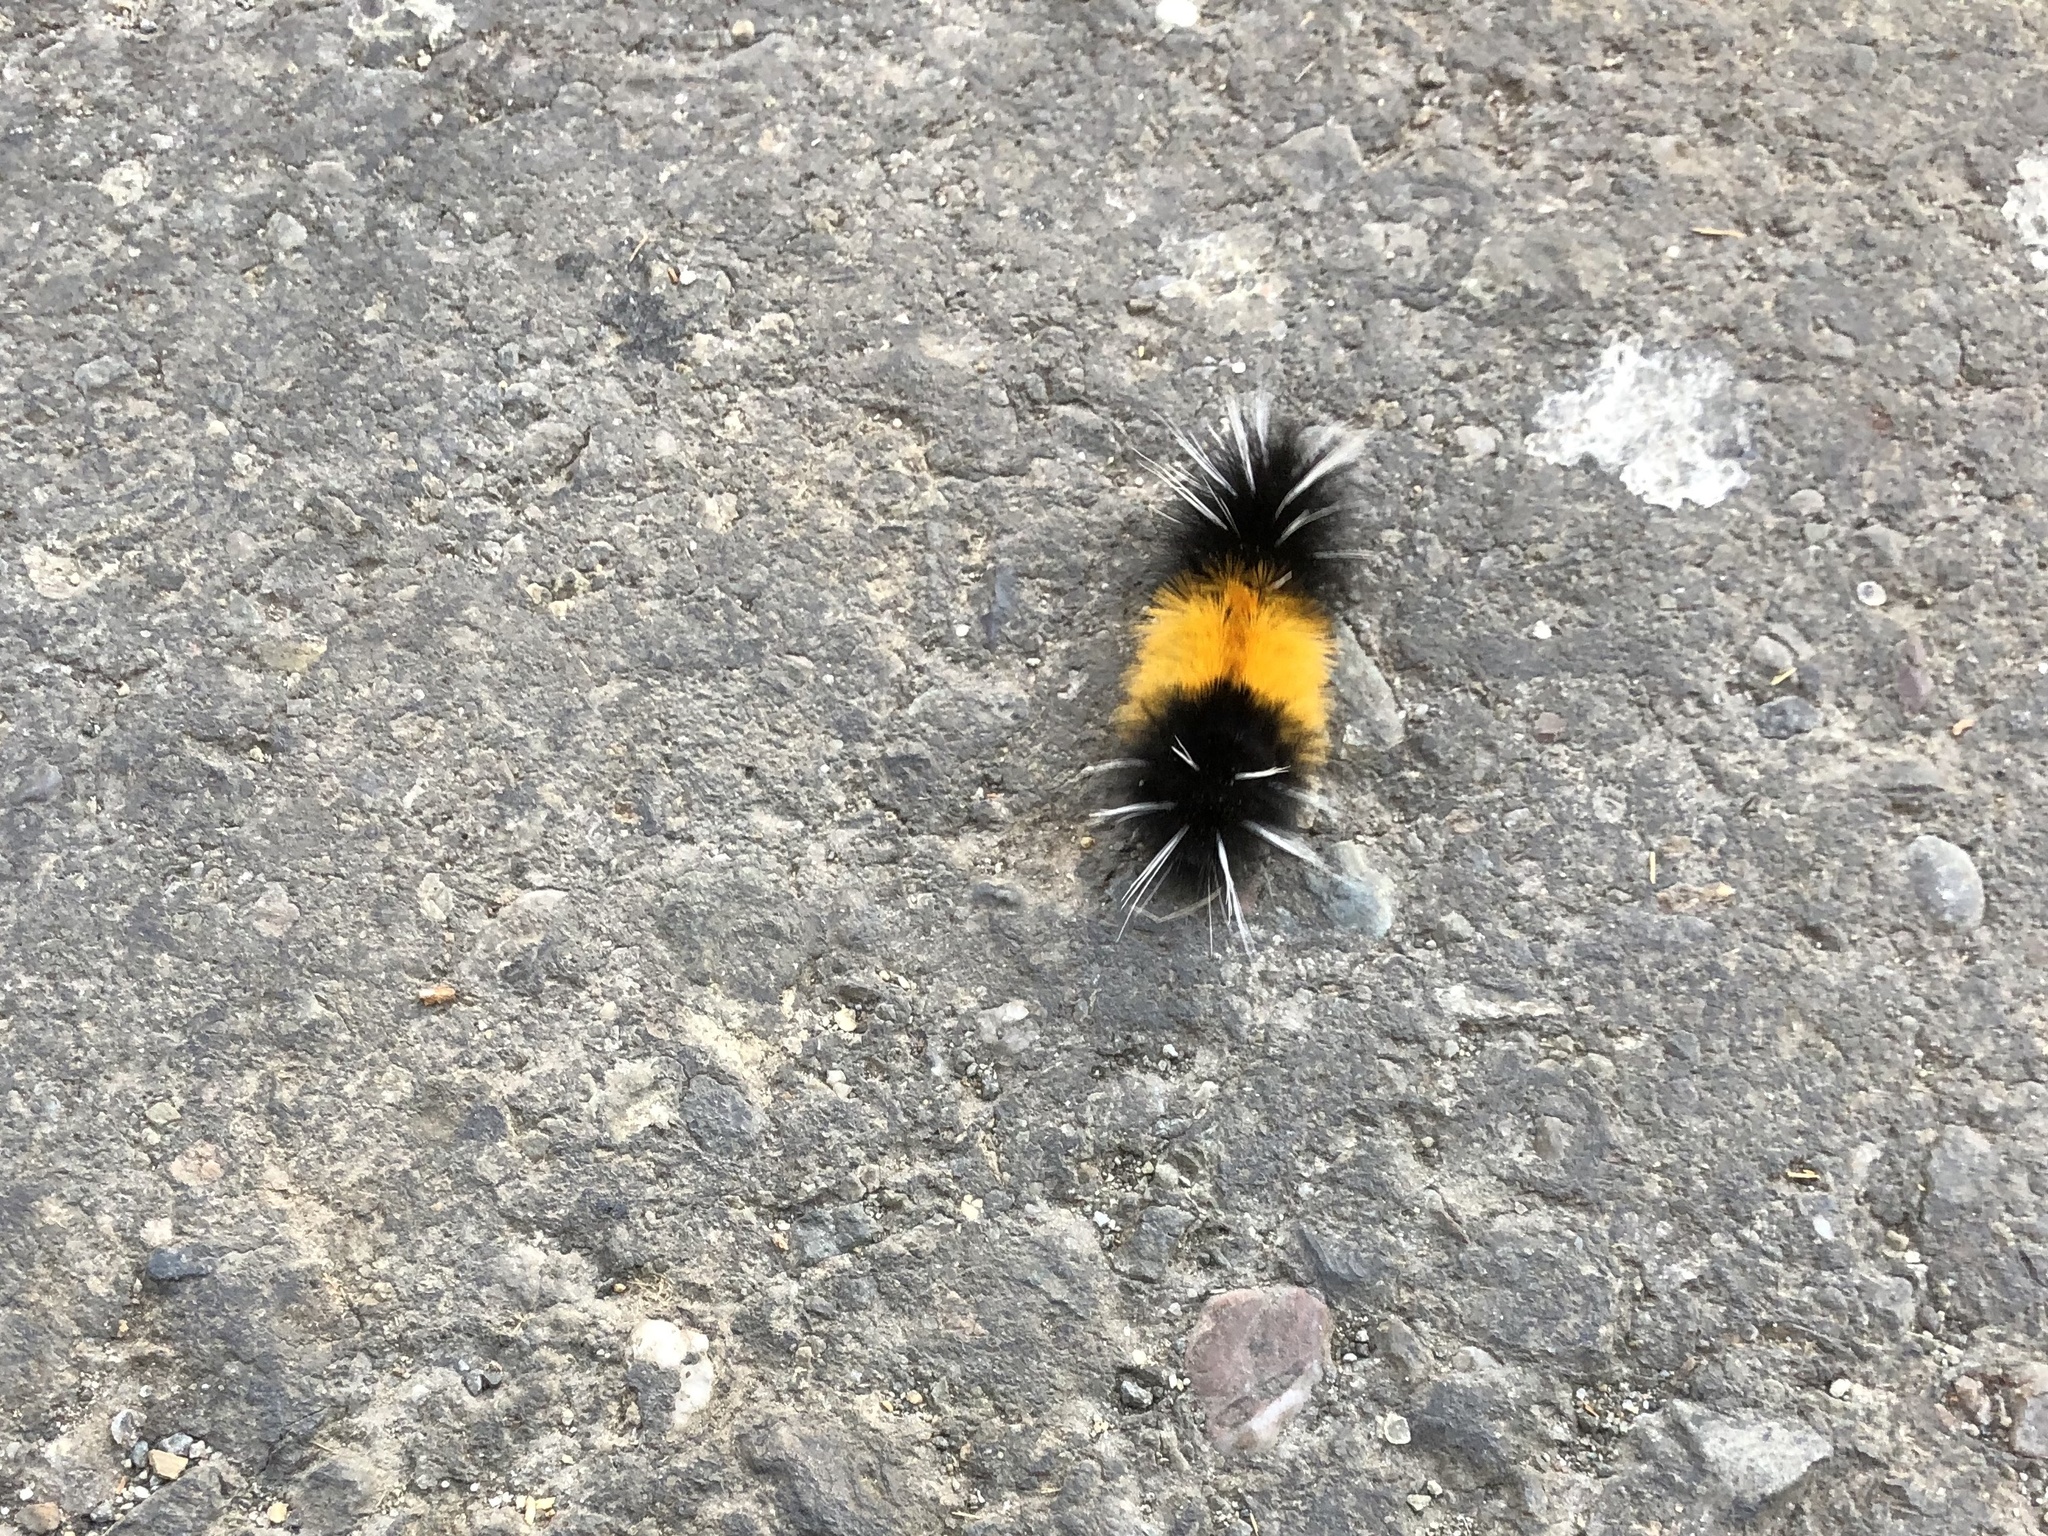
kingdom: Animalia
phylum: Arthropoda
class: Insecta
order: Lepidoptera
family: Erebidae
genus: Lophocampa
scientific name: Lophocampa maculata
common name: Spotted tussock moth
